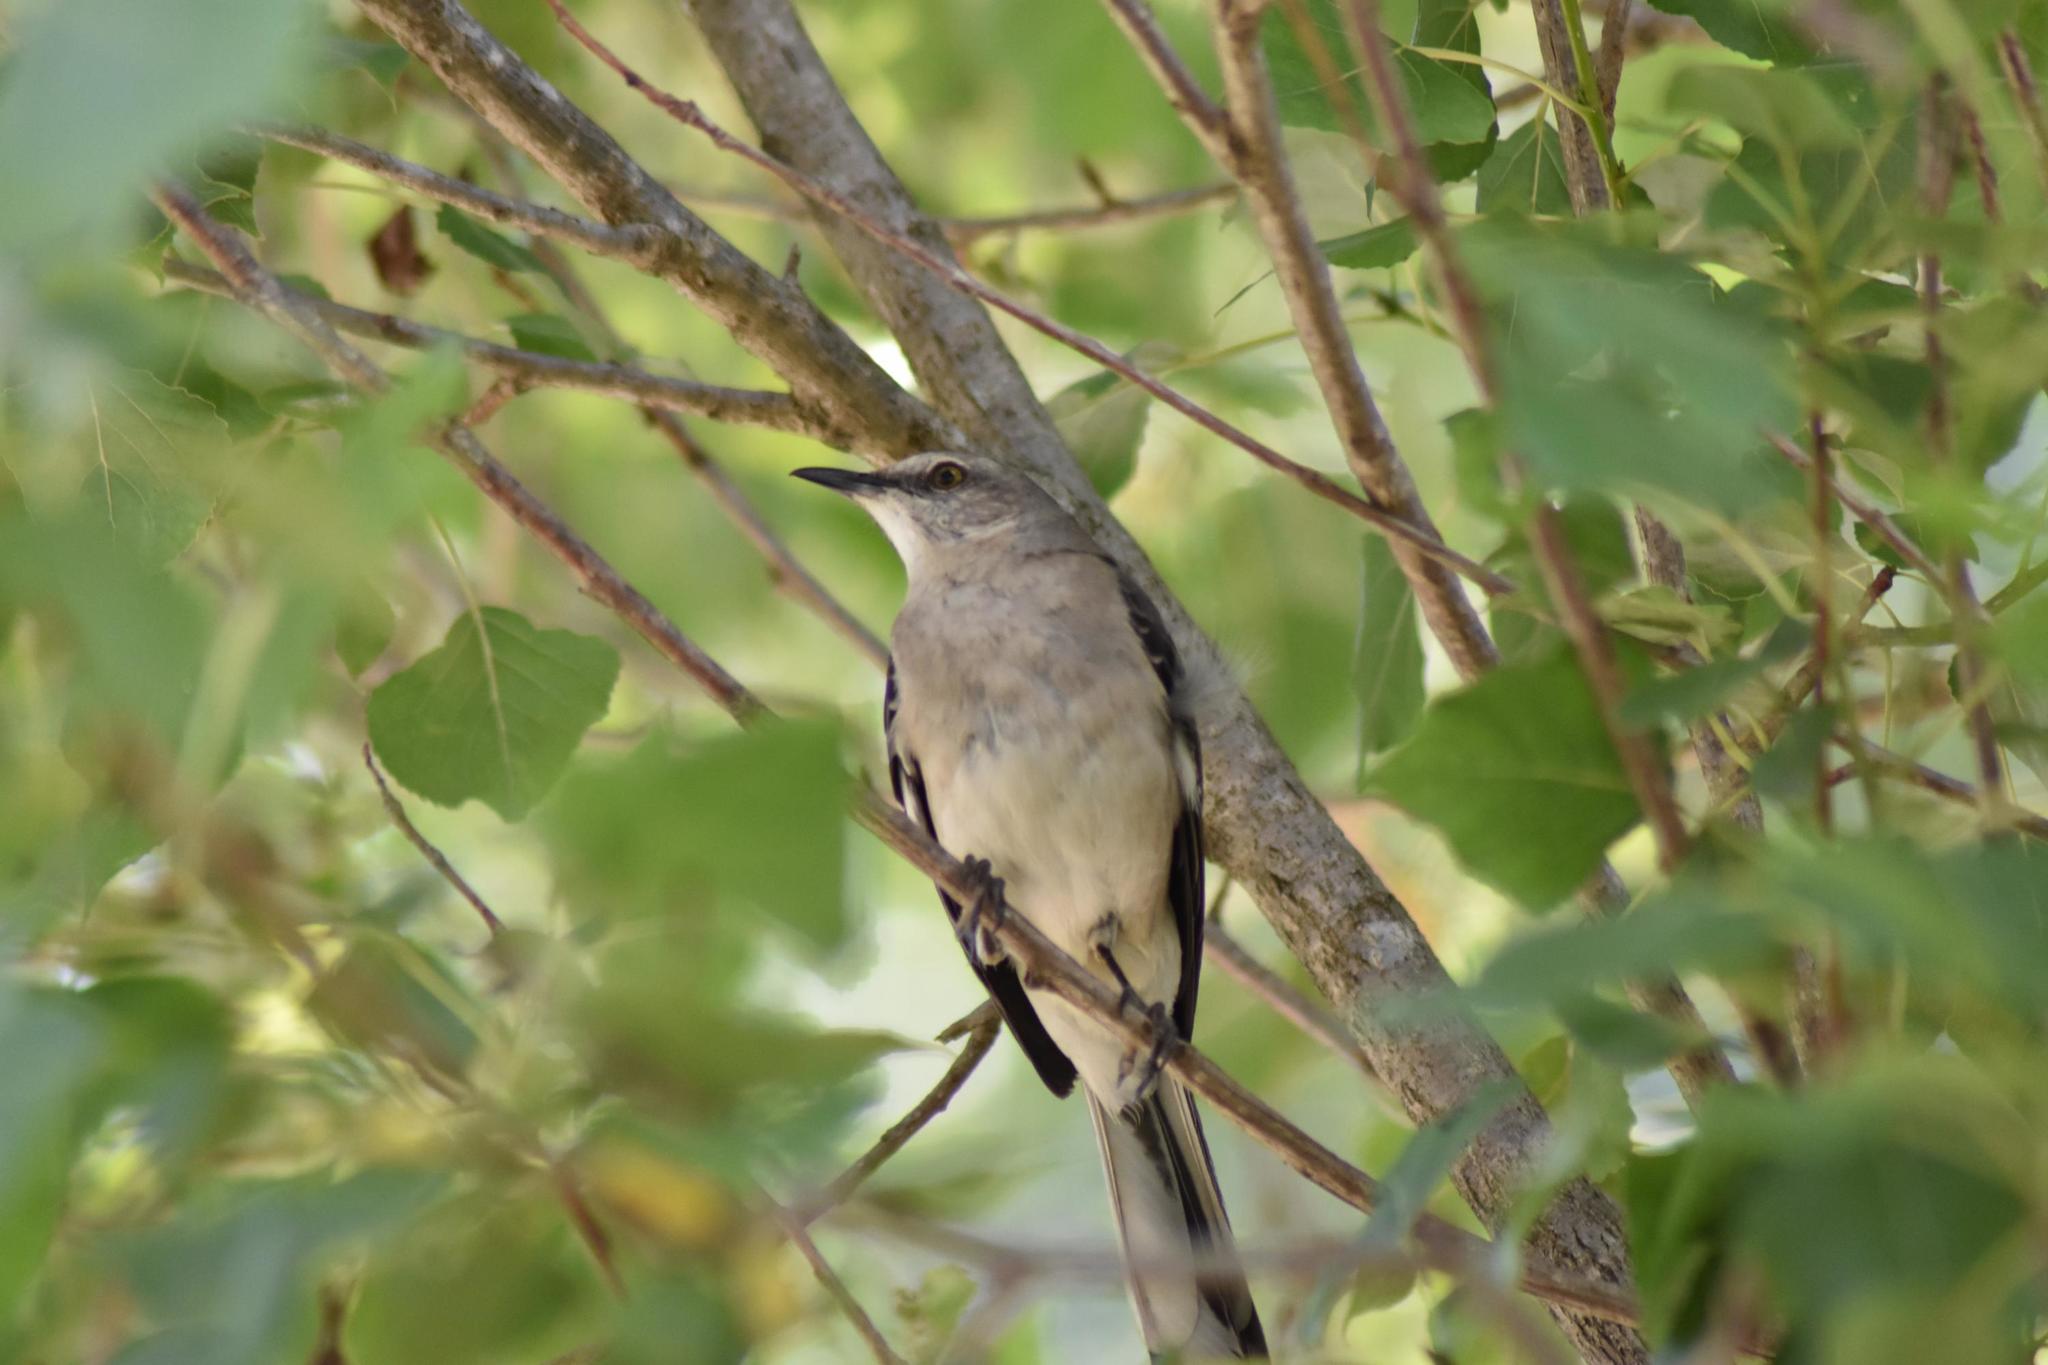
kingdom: Animalia
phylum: Chordata
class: Aves
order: Passeriformes
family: Mimidae
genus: Mimus
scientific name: Mimus polyglottos
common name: Northern mockingbird
